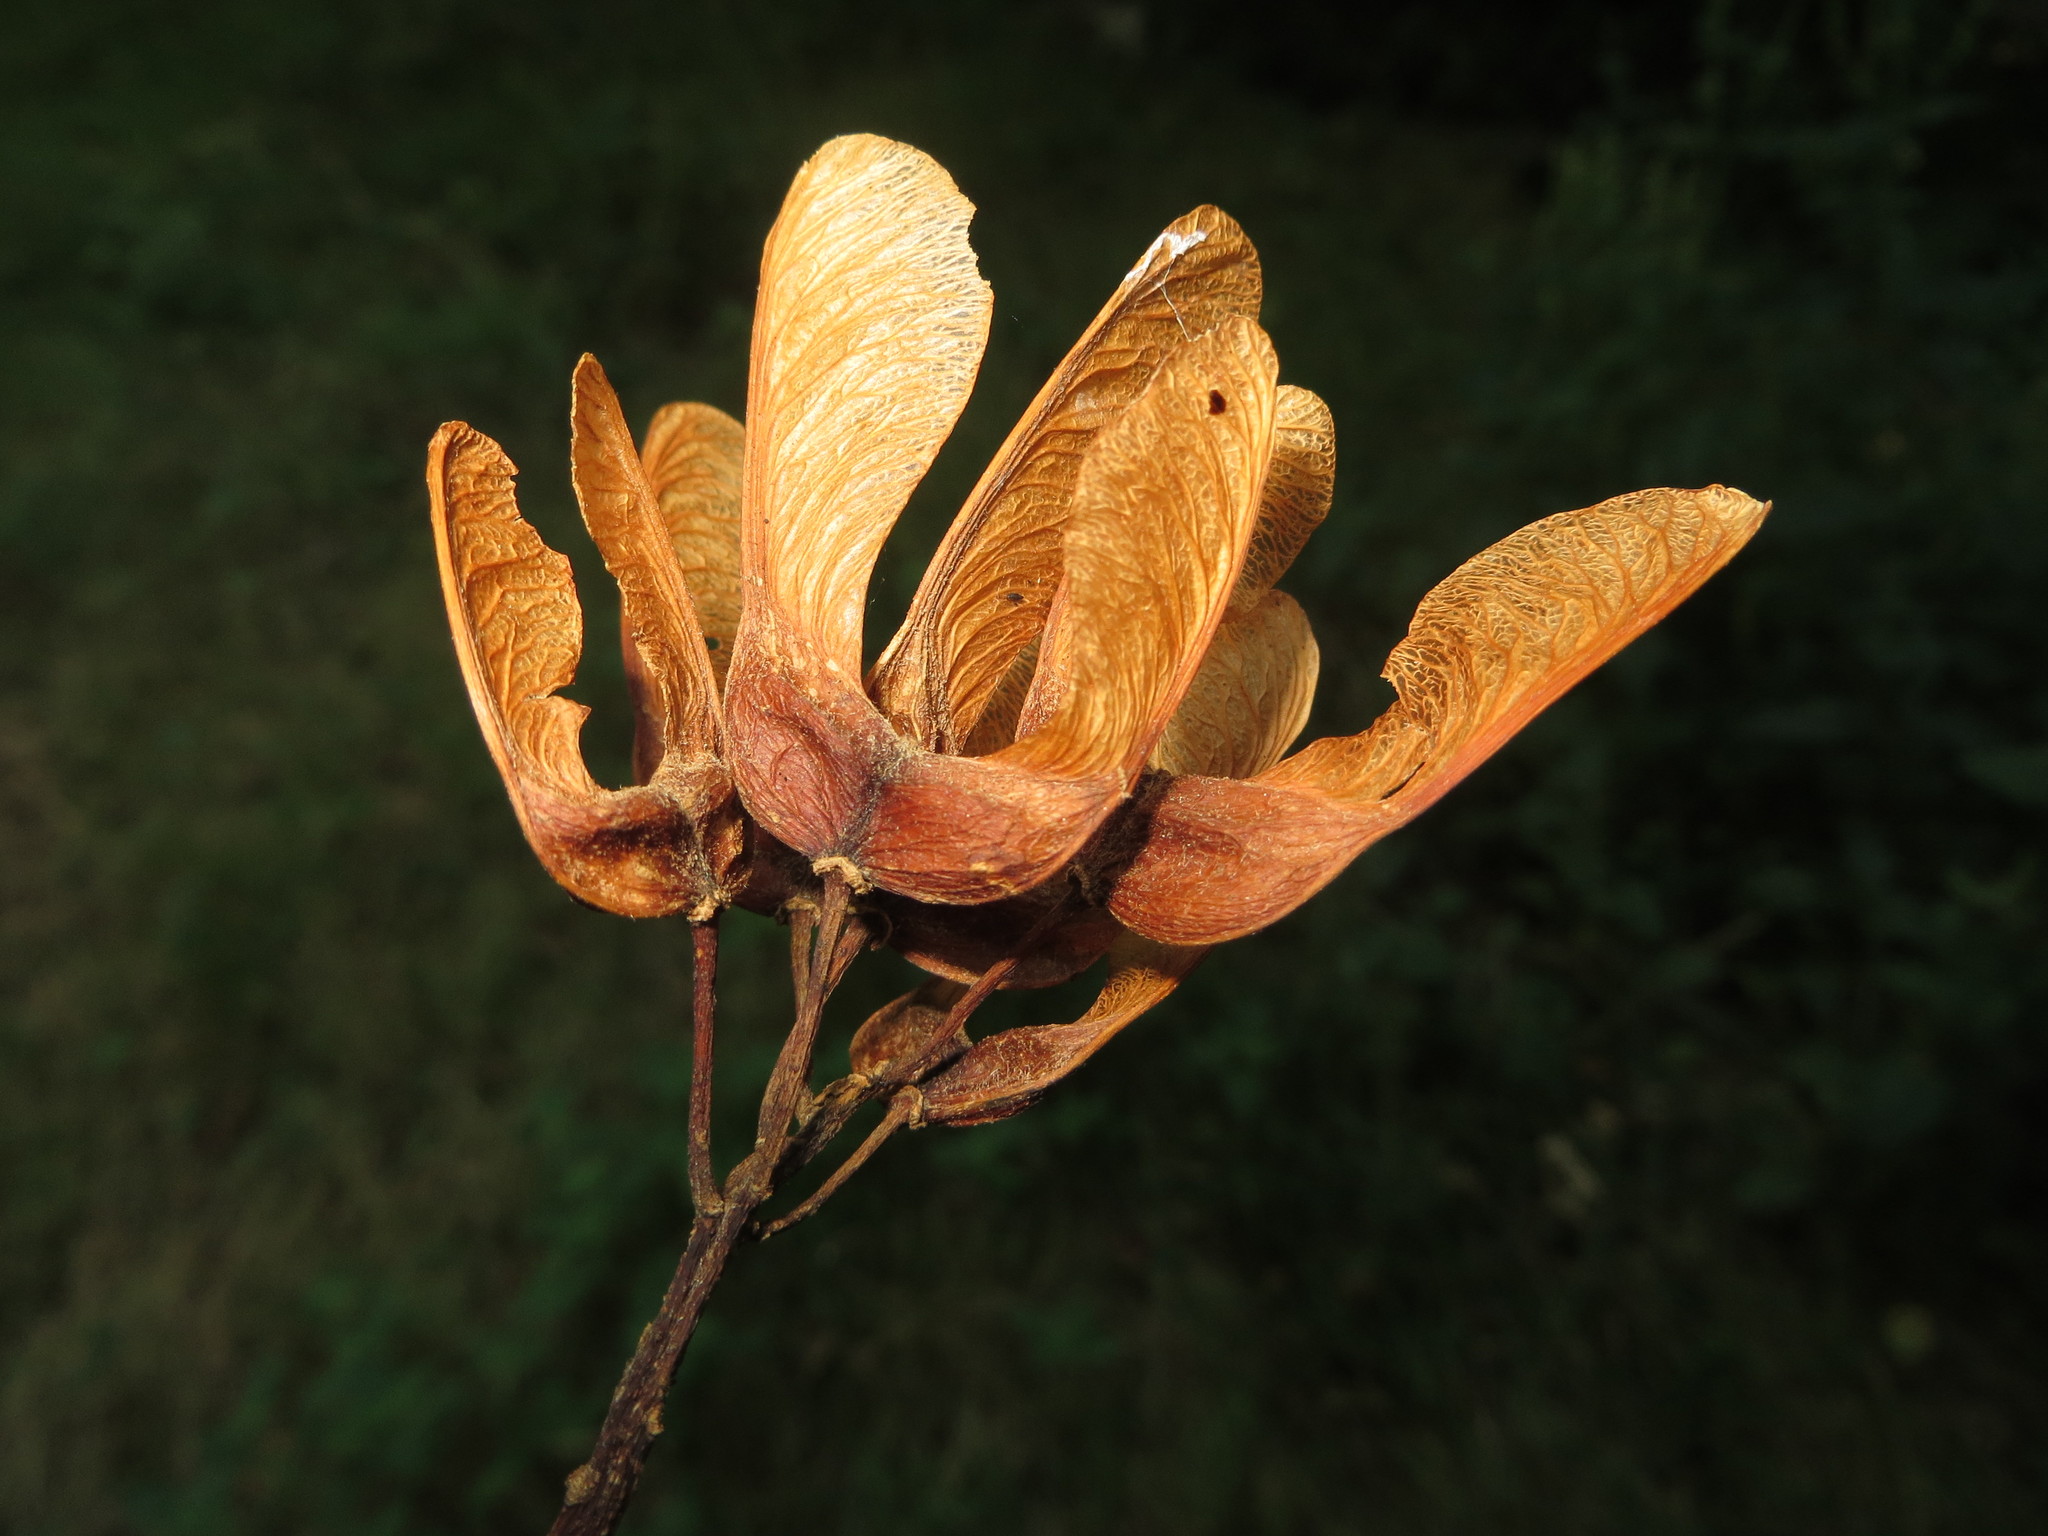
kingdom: Plantae
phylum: Tracheophyta
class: Magnoliopsida
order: Sapindales
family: Sapindaceae
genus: Acer
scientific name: Acer pseudoplatanus
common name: Sycamore
